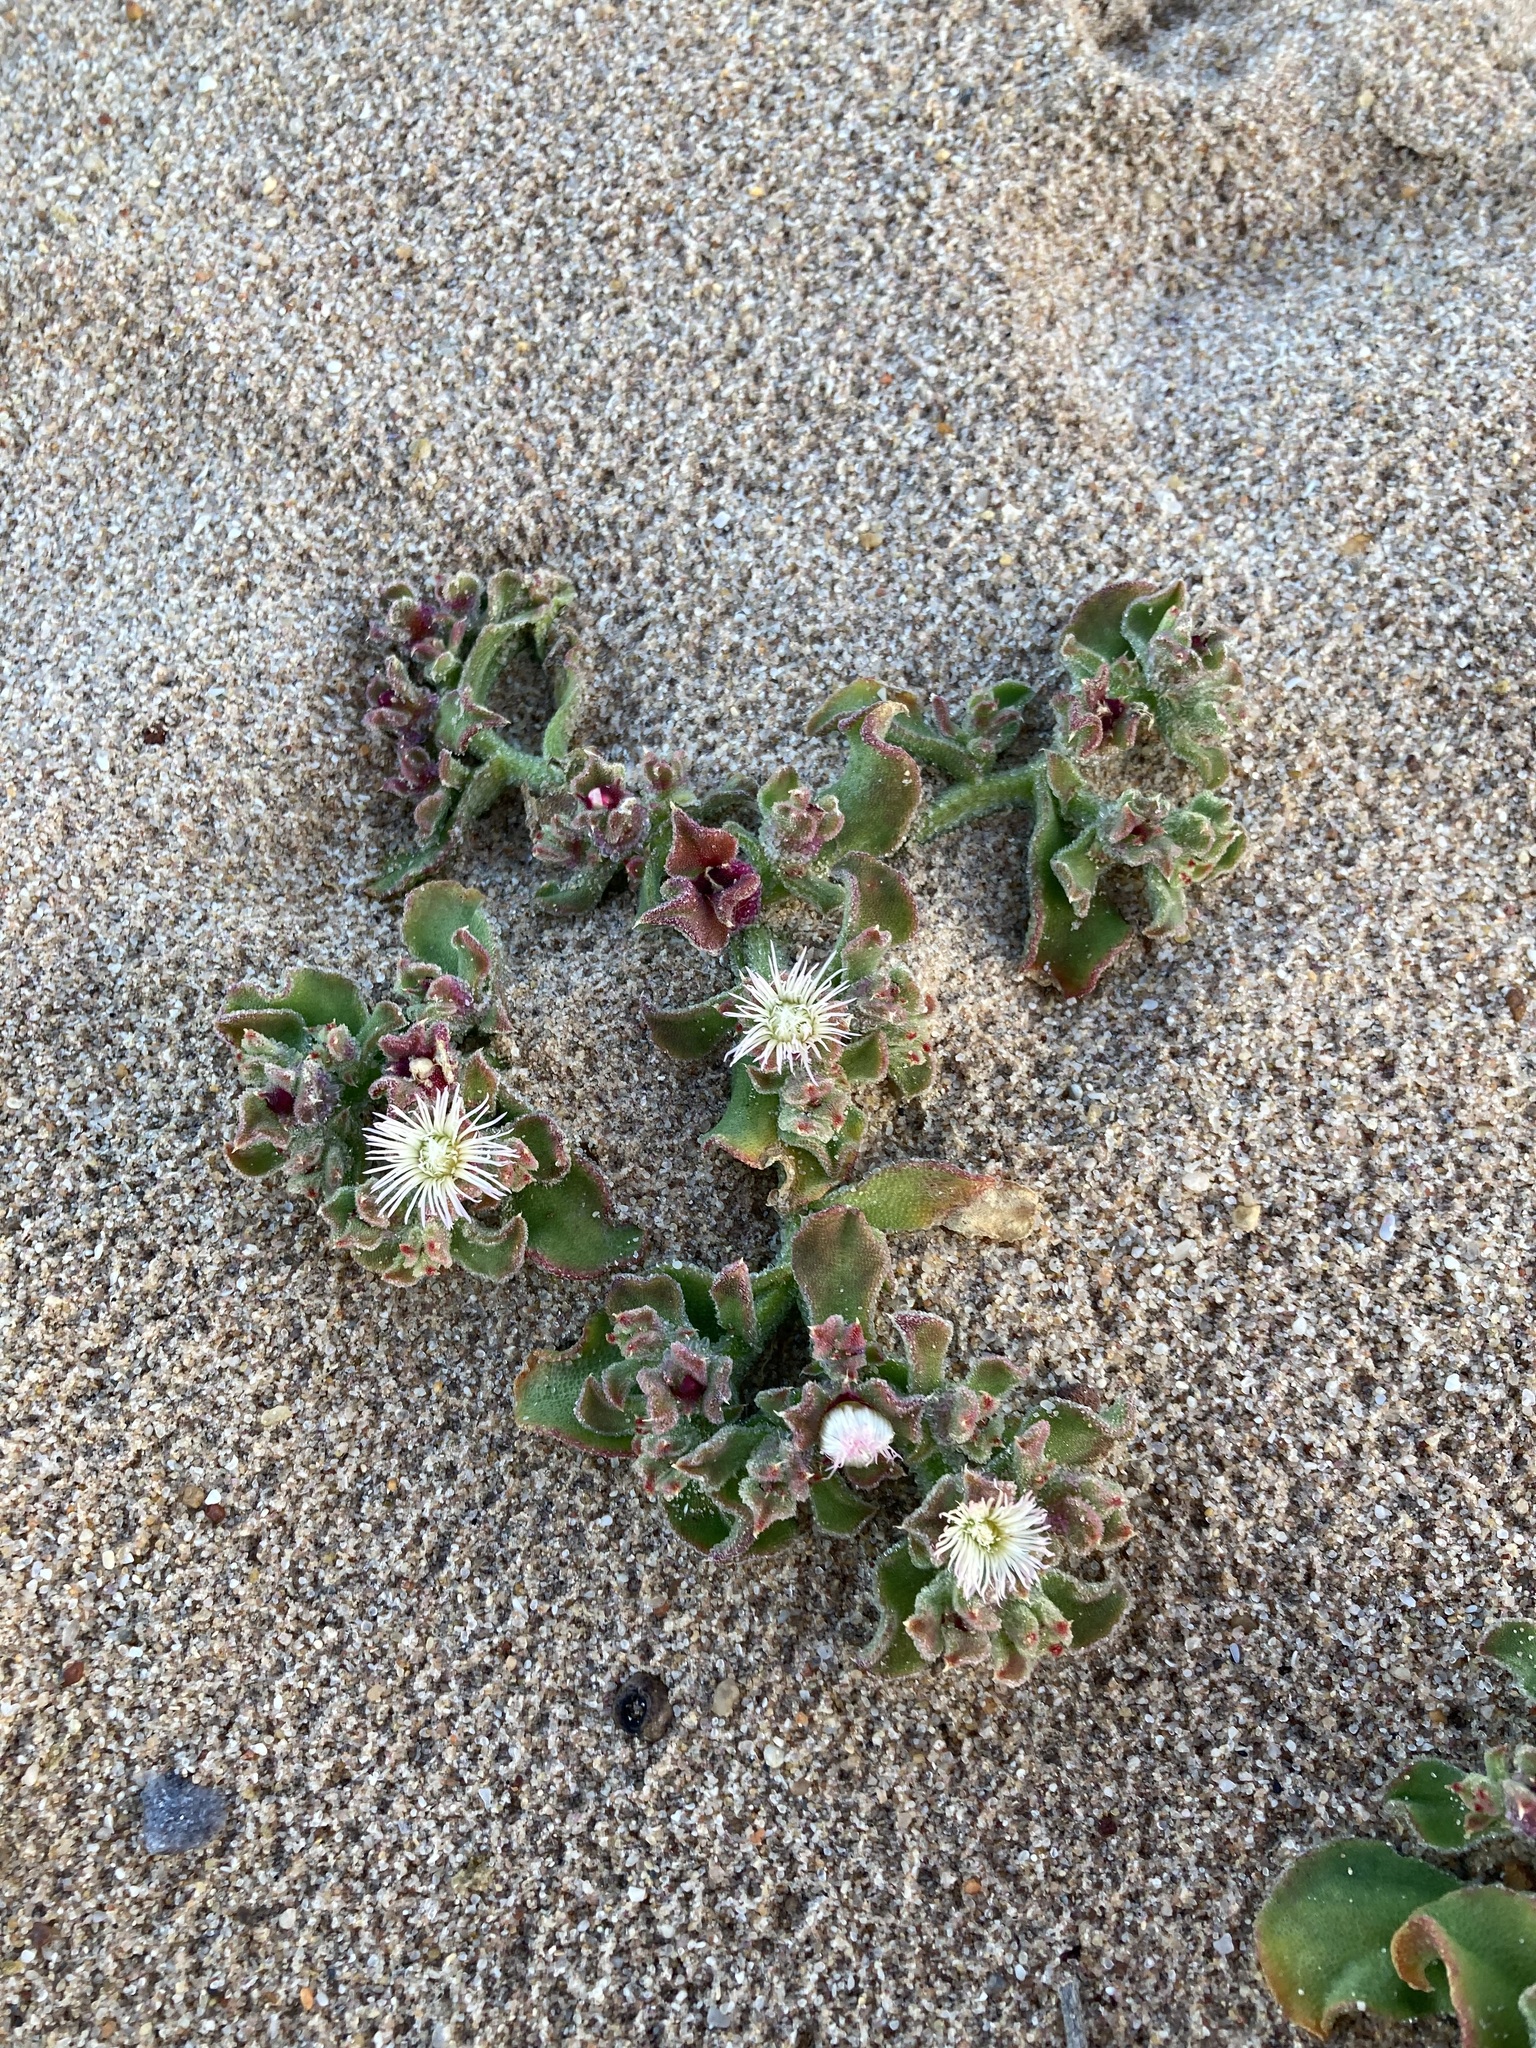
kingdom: Plantae
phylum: Tracheophyta
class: Magnoliopsida
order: Caryophyllales
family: Aizoaceae
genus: Mesembryanthemum
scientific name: Mesembryanthemum crystallinum
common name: Common iceplant
